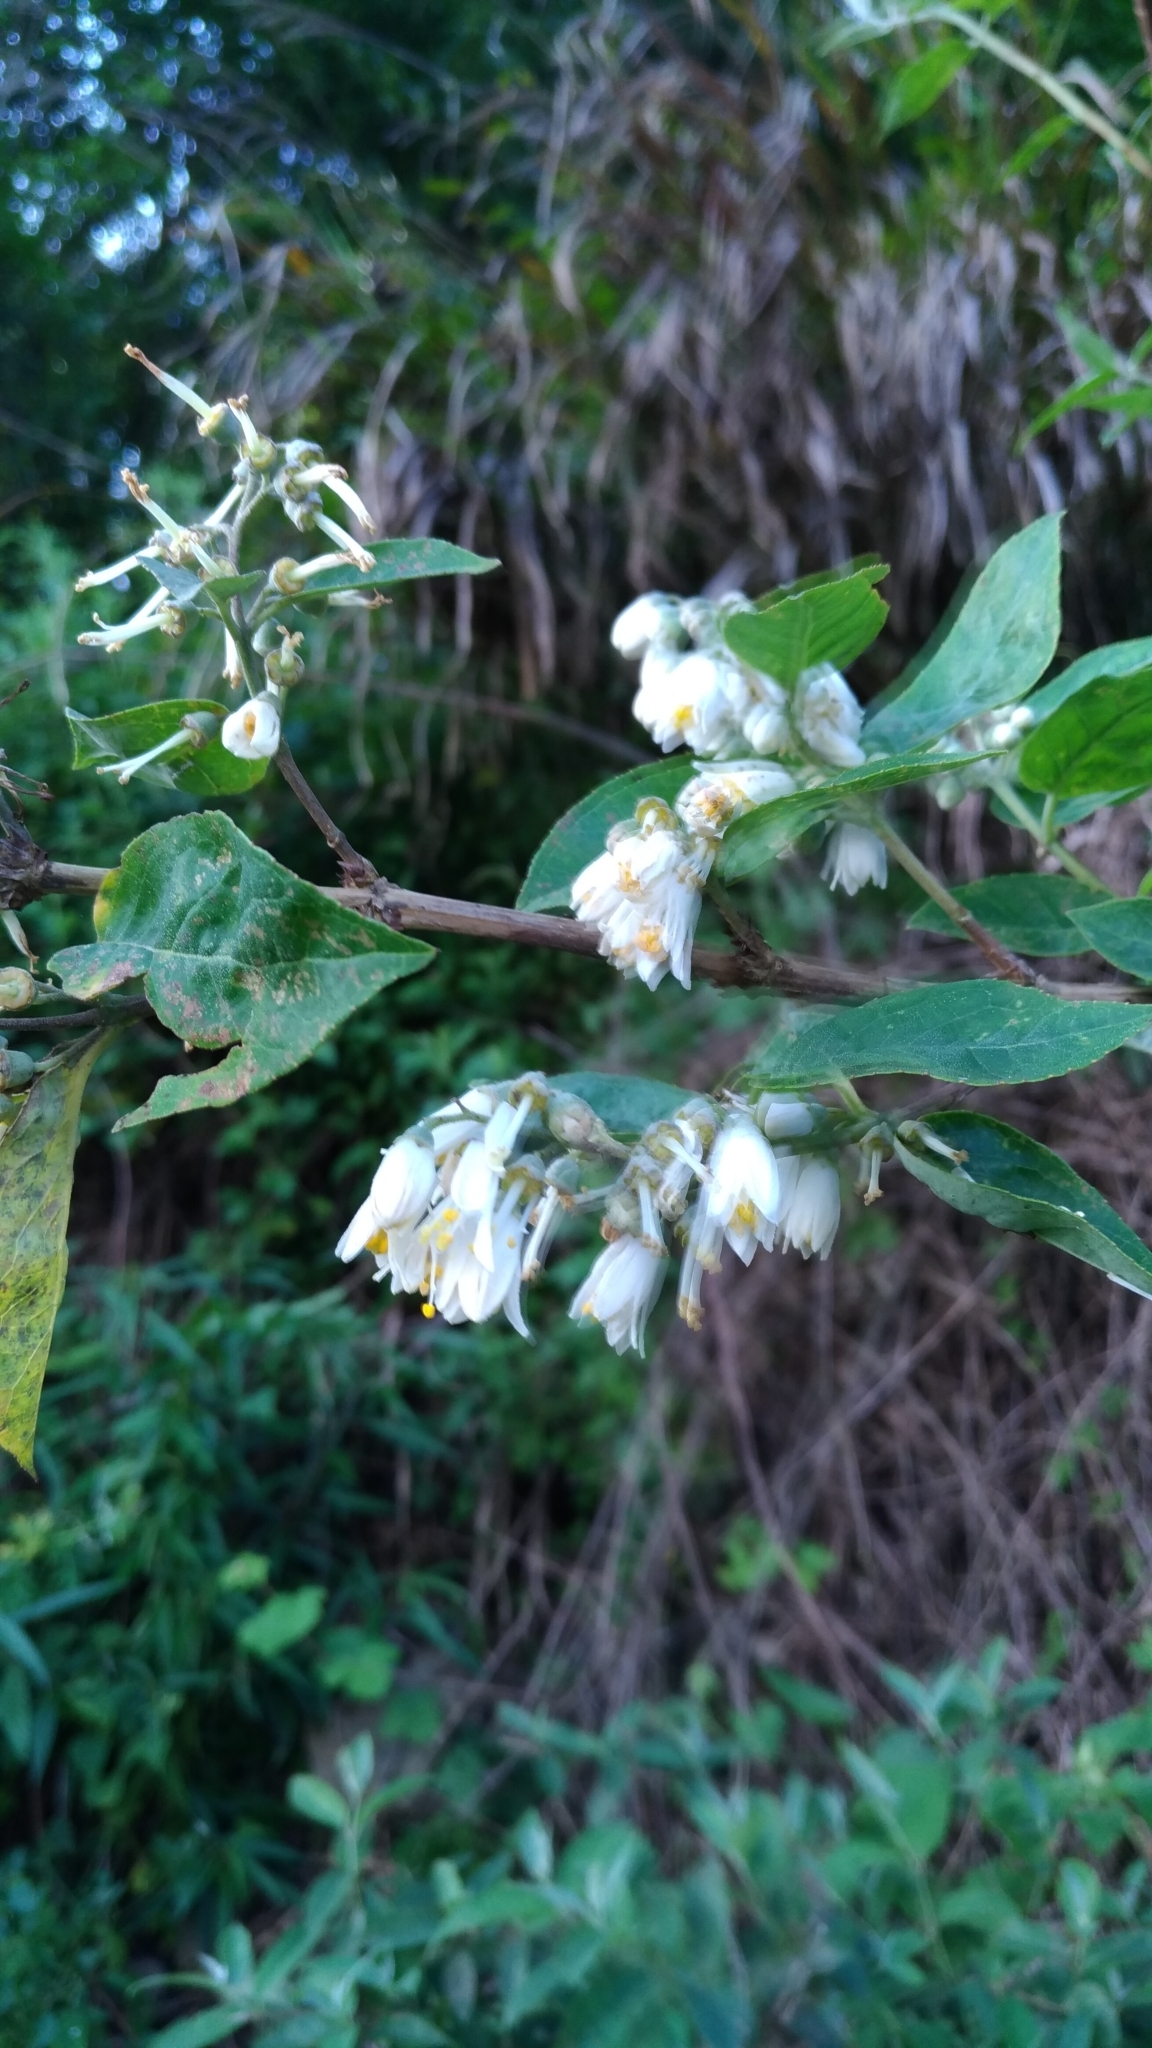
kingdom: Plantae
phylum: Tracheophyta
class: Magnoliopsida
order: Cornales
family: Hydrangeaceae
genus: Deutzia
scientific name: Deutzia pulchra
